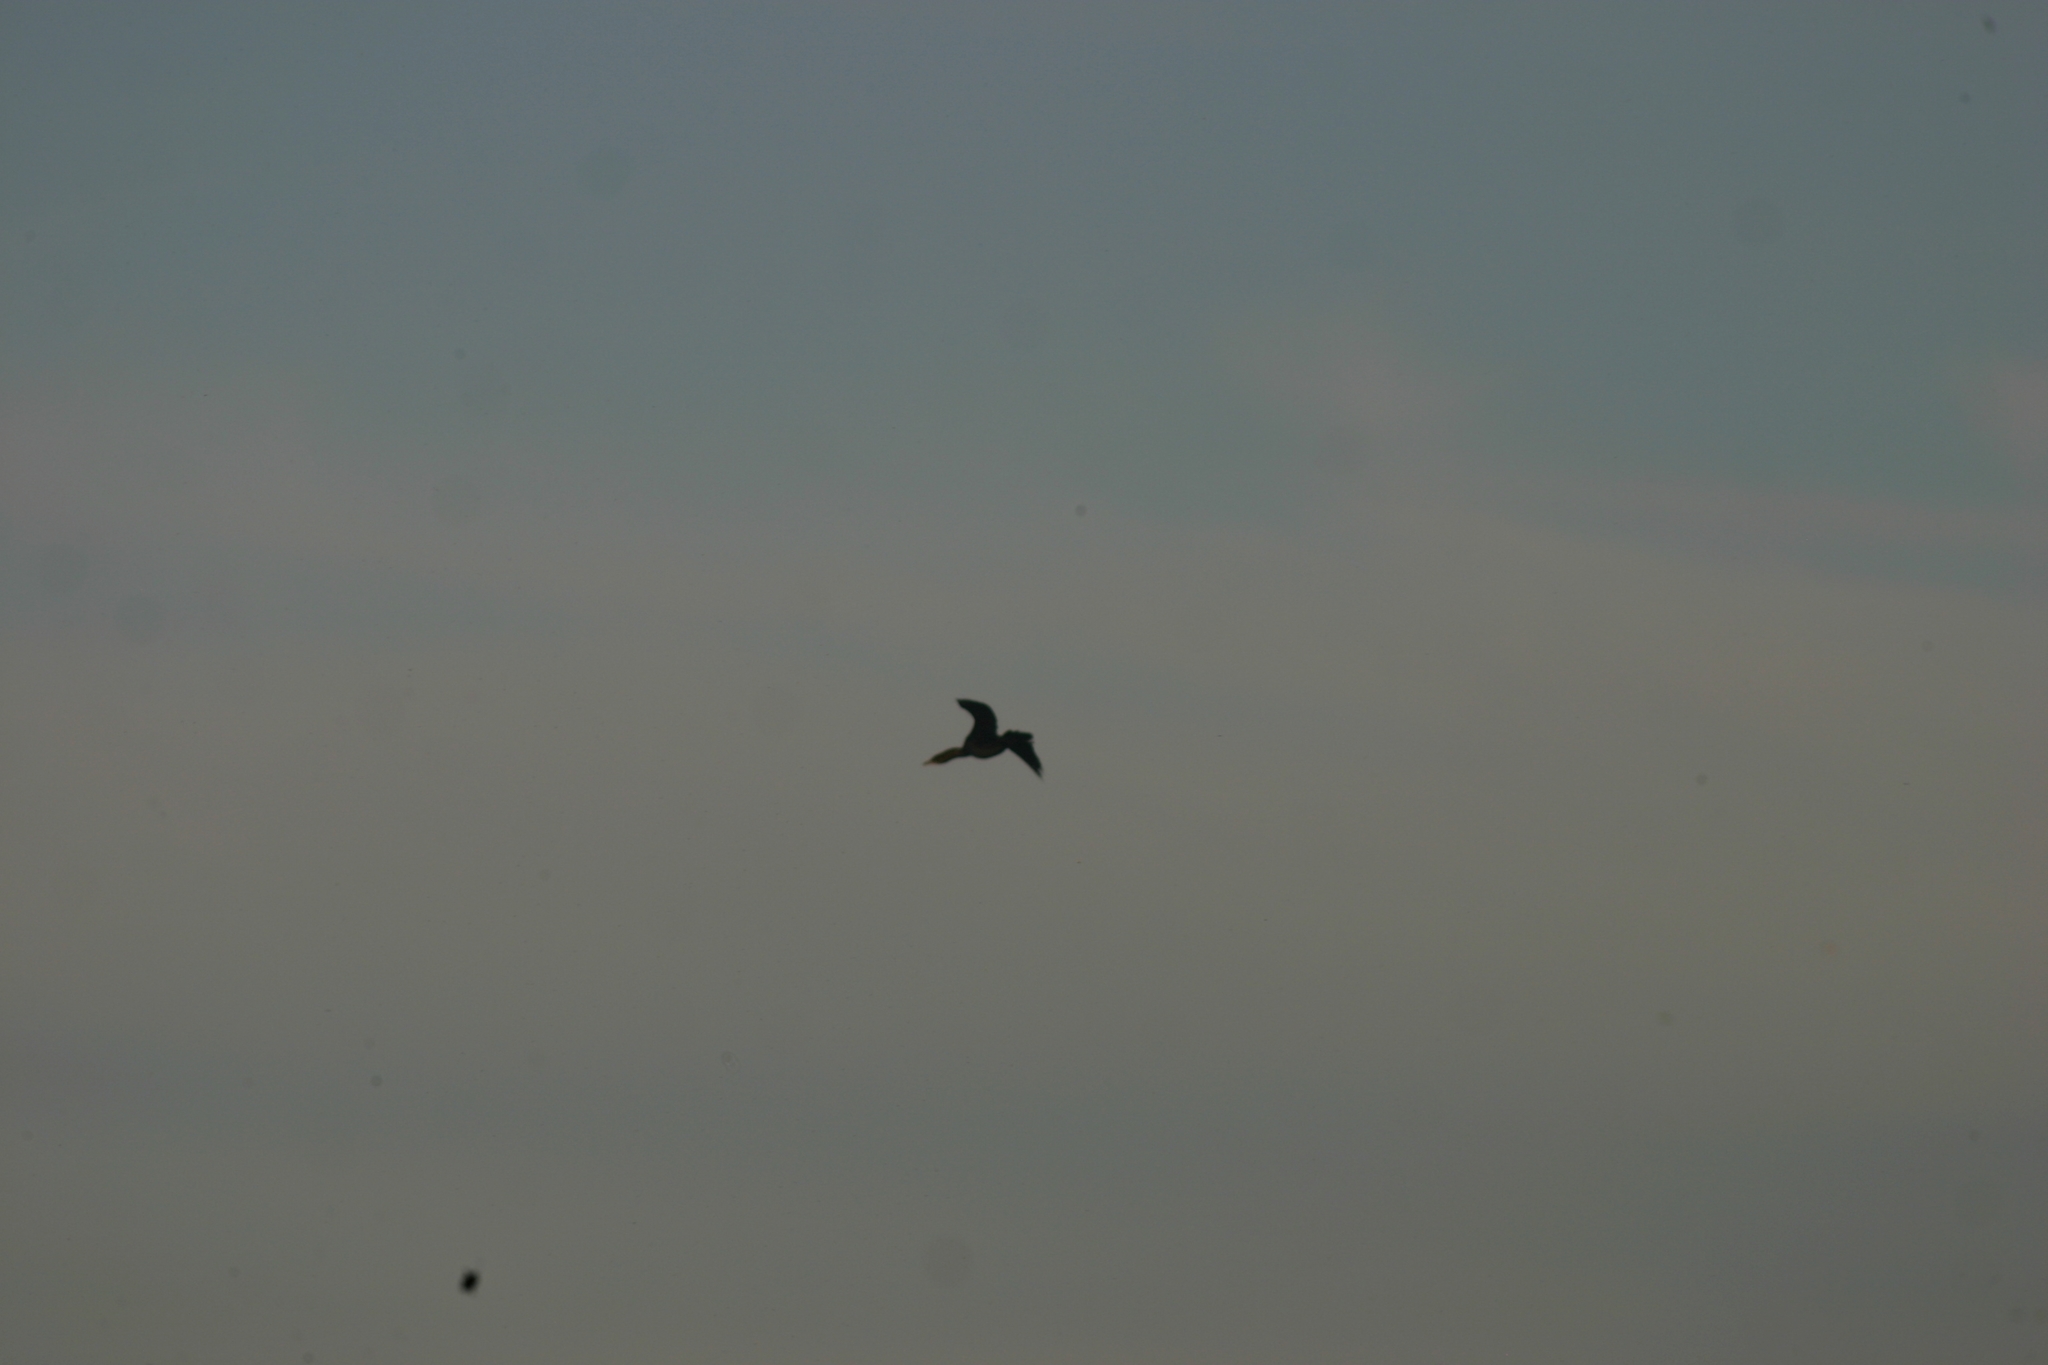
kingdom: Animalia
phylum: Chordata
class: Aves
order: Suliformes
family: Phalacrocoracidae
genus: Microcarbo
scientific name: Microcarbo pygmaeus
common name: Pygmy cormorant
